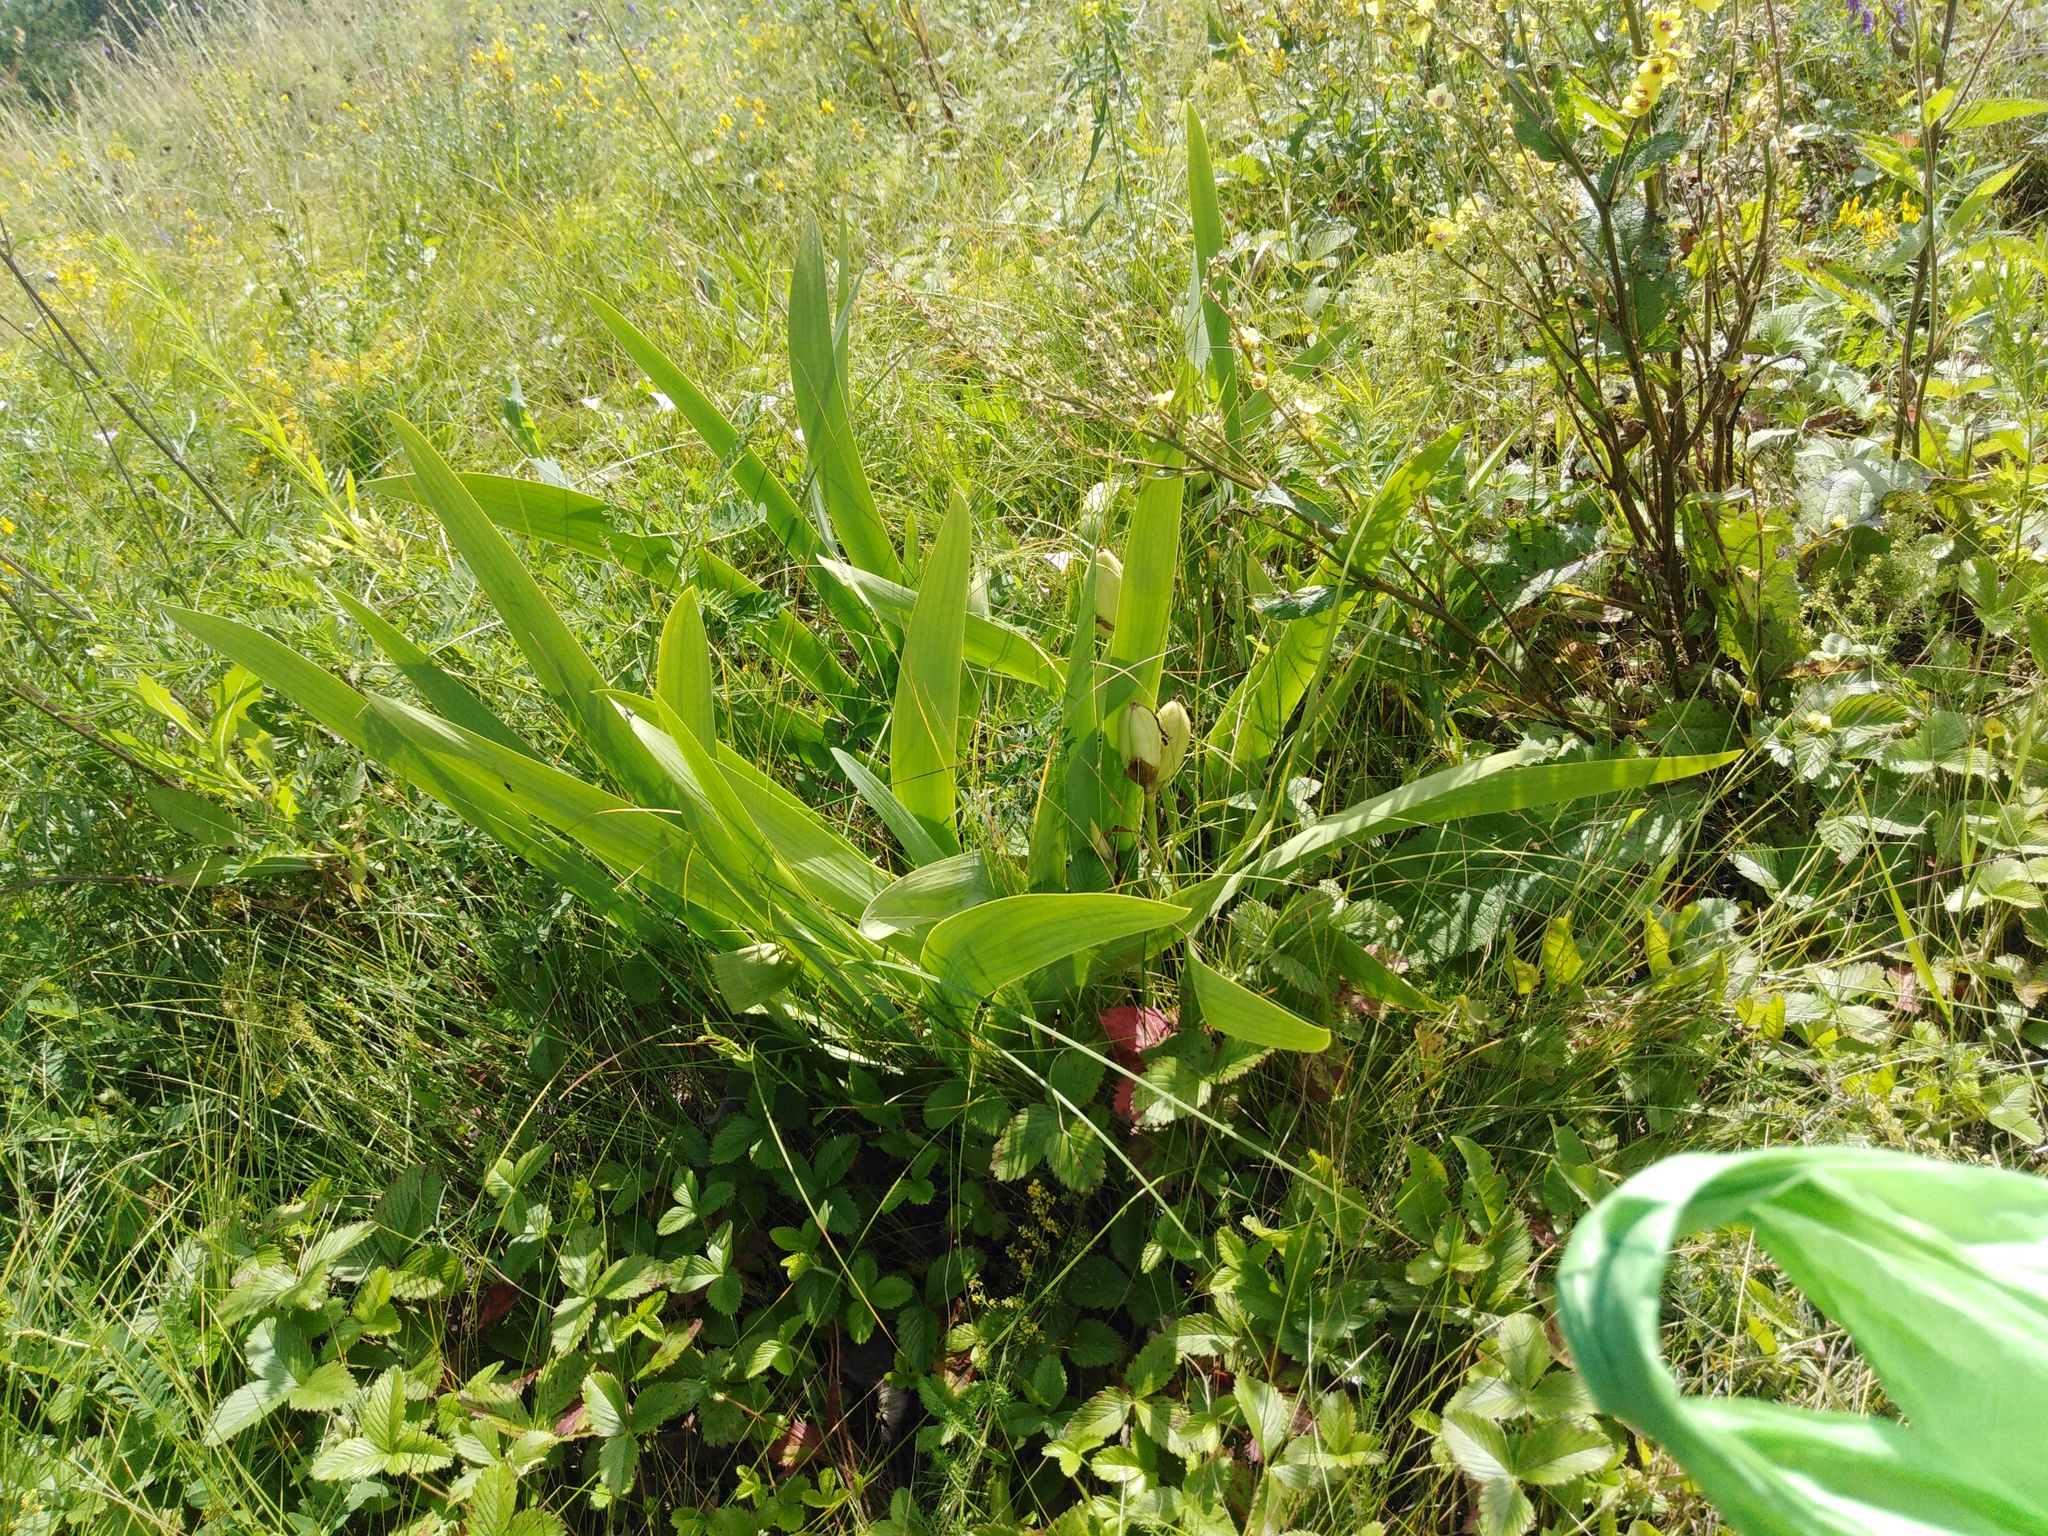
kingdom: Plantae
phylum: Tracheophyta
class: Liliopsida
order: Asparagales
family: Iridaceae
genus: Iris
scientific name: Iris aphylla
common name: Stool iris
